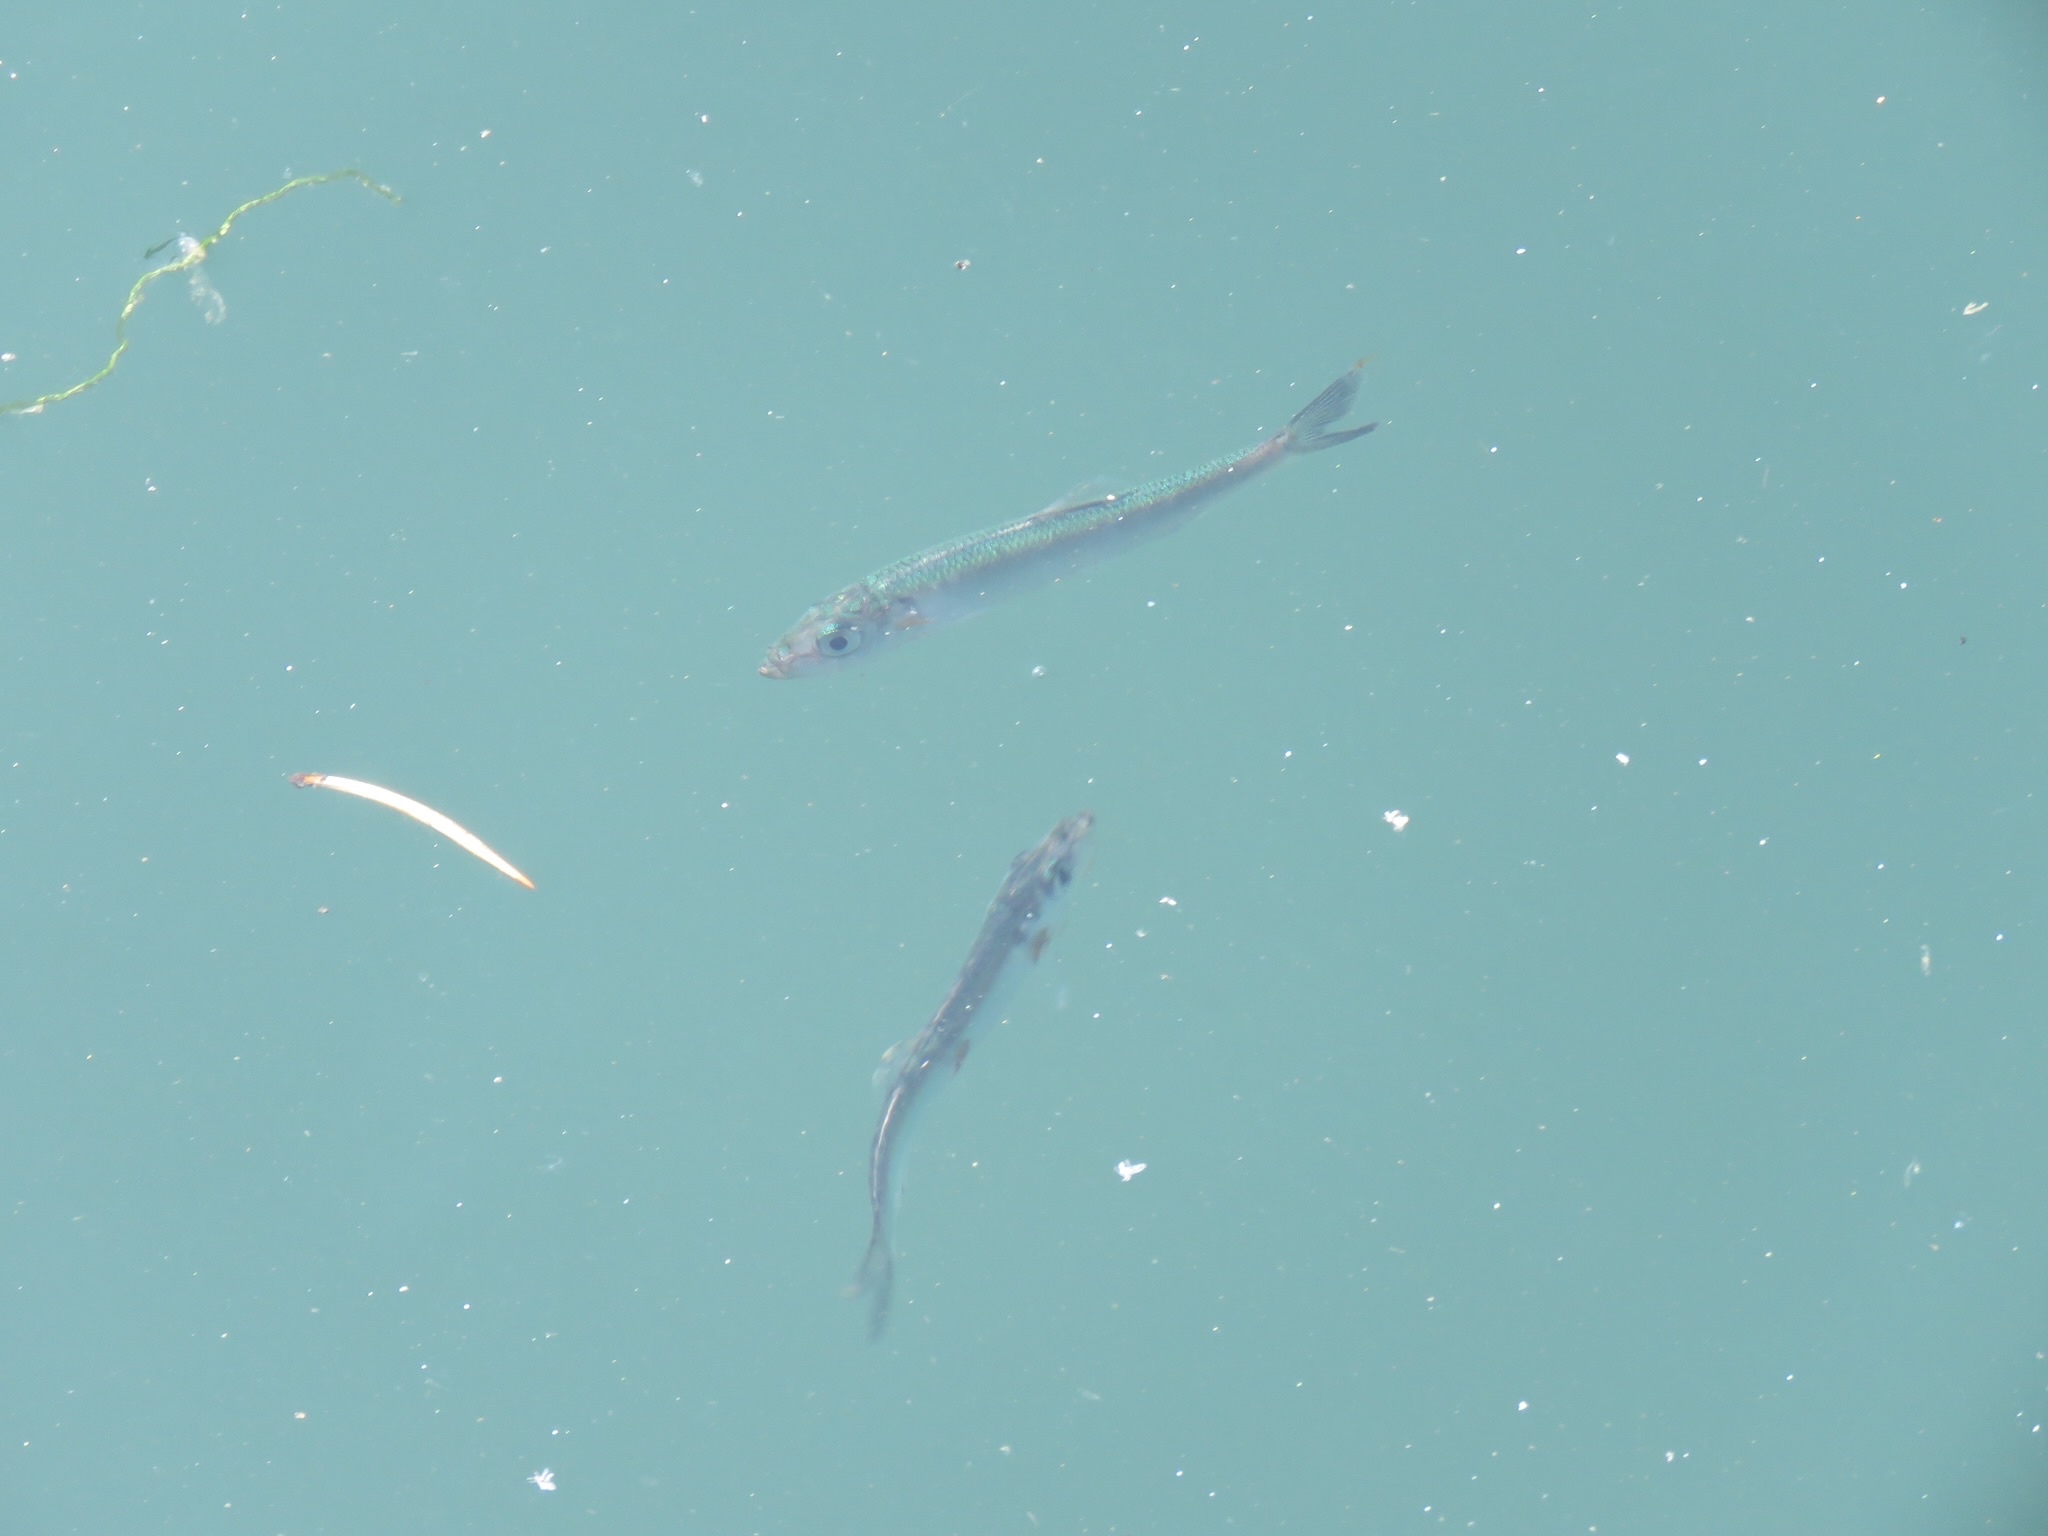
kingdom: Animalia
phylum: Chordata
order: Clupeiformes
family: Clupeidae
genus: Clupea
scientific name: Clupea pallasii
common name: Pacific herring
